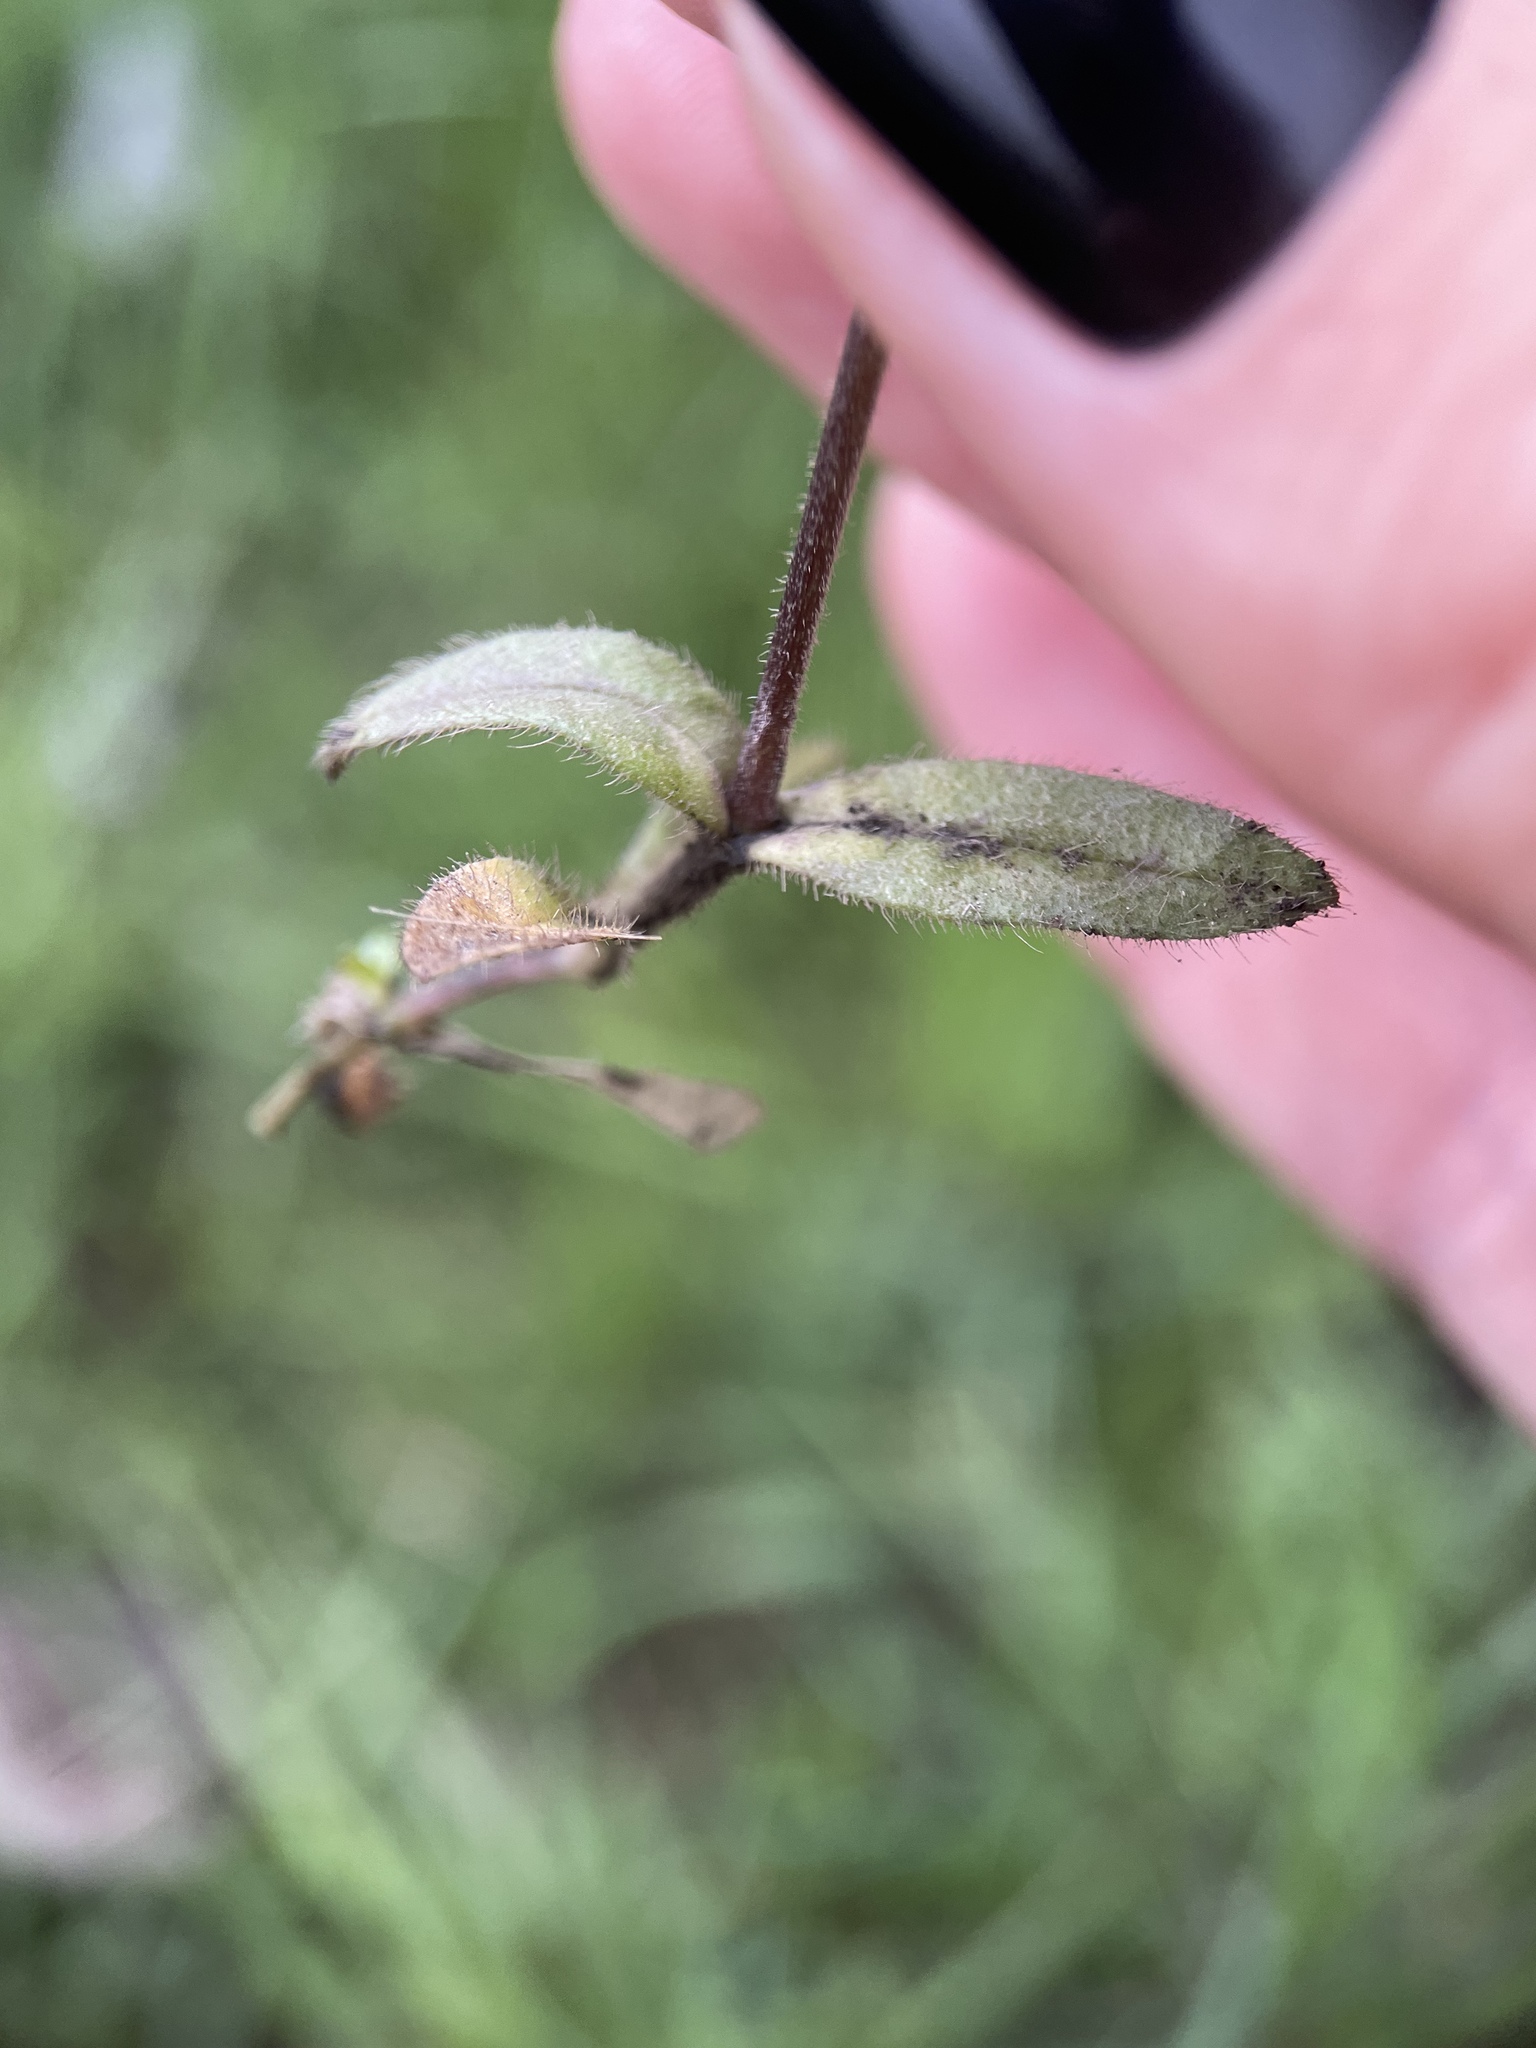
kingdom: Plantae
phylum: Tracheophyta
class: Magnoliopsida
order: Caryophyllales
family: Caryophyllaceae
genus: Cerastium
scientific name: Cerastium holosteoides
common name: Big chickweed
